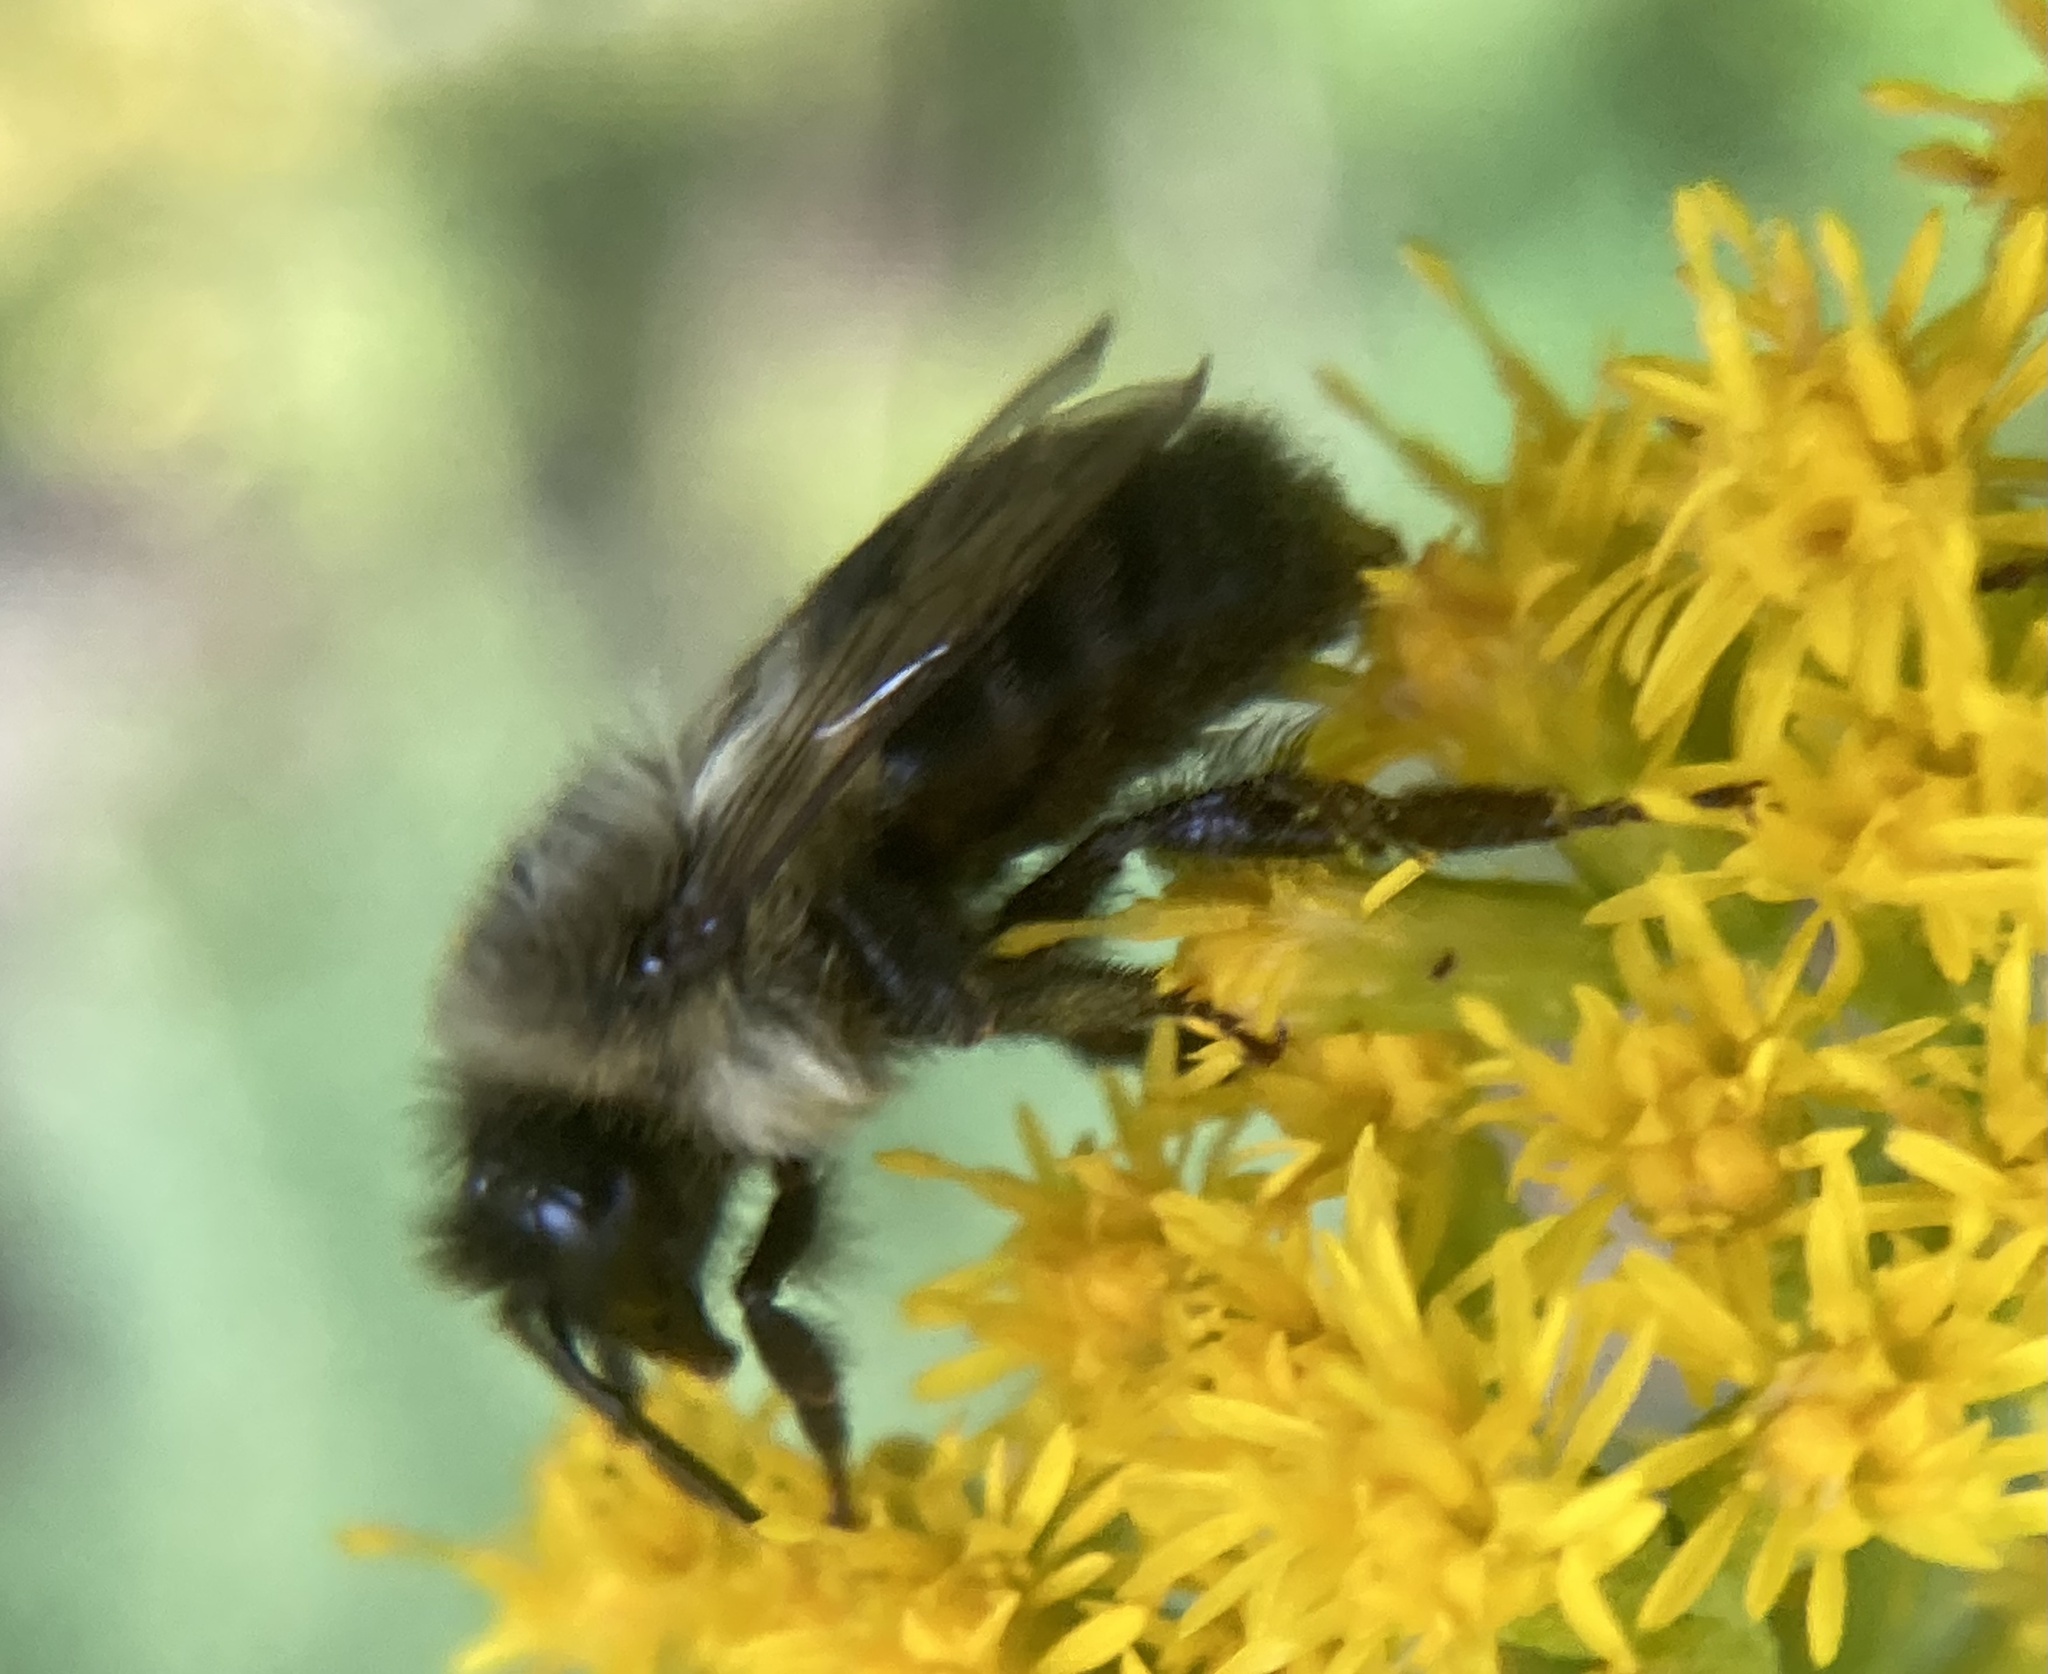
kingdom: Animalia
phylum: Arthropoda
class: Insecta
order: Hymenoptera
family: Apidae
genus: Bombus
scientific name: Bombus impatiens
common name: Common eastern bumble bee
